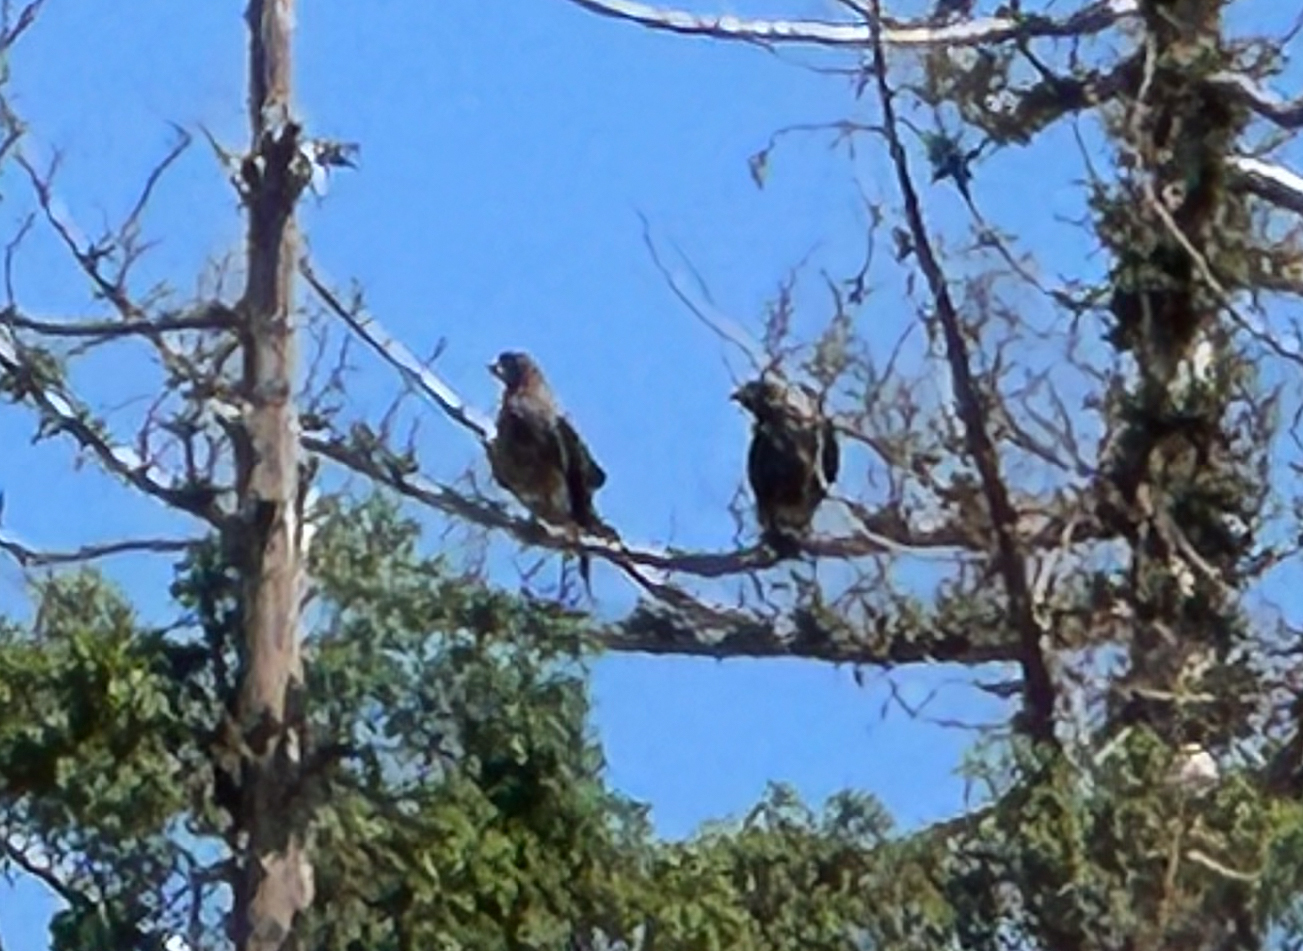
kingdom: Animalia
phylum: Chordata
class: Aves
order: Accipitriformes
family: Accipitridae
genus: Buteo
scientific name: Buteo swainsoni
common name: Swainson's hawk
